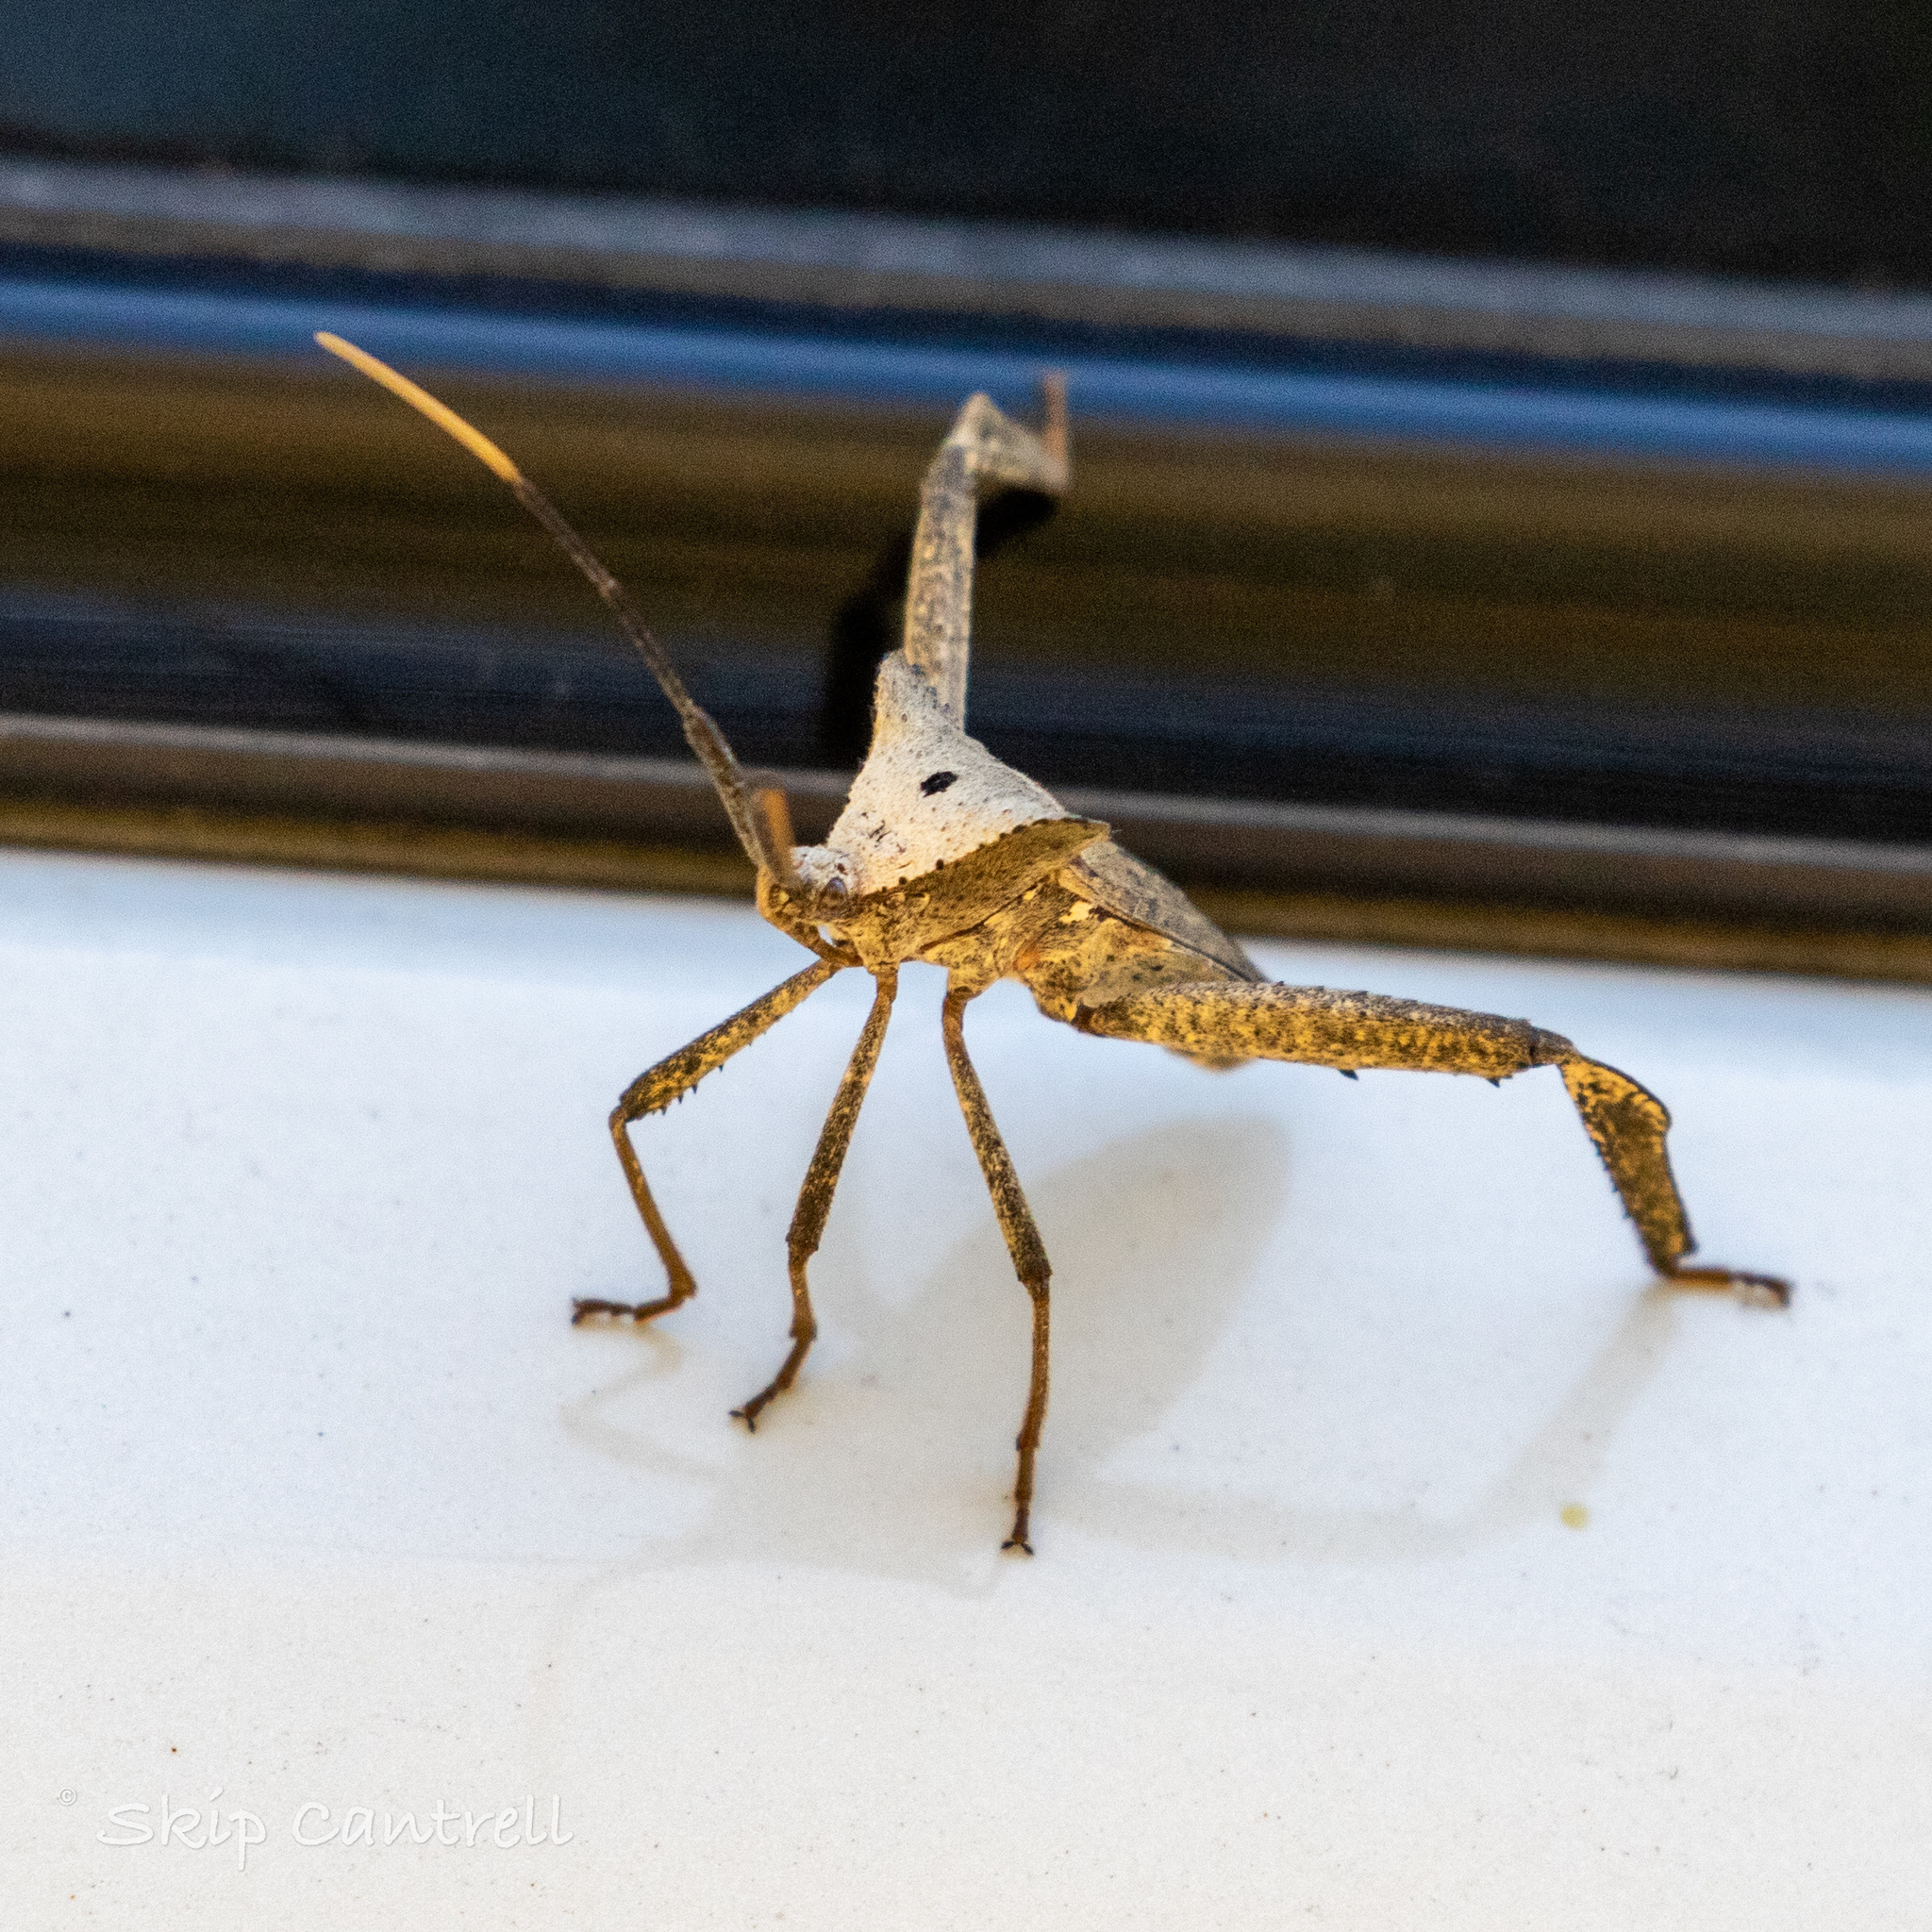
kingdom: Animalia
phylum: Arthropoda
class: Insecta
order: Hemiptera
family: Coreidae
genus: Acanthocephala
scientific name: Acanthocephala alata
